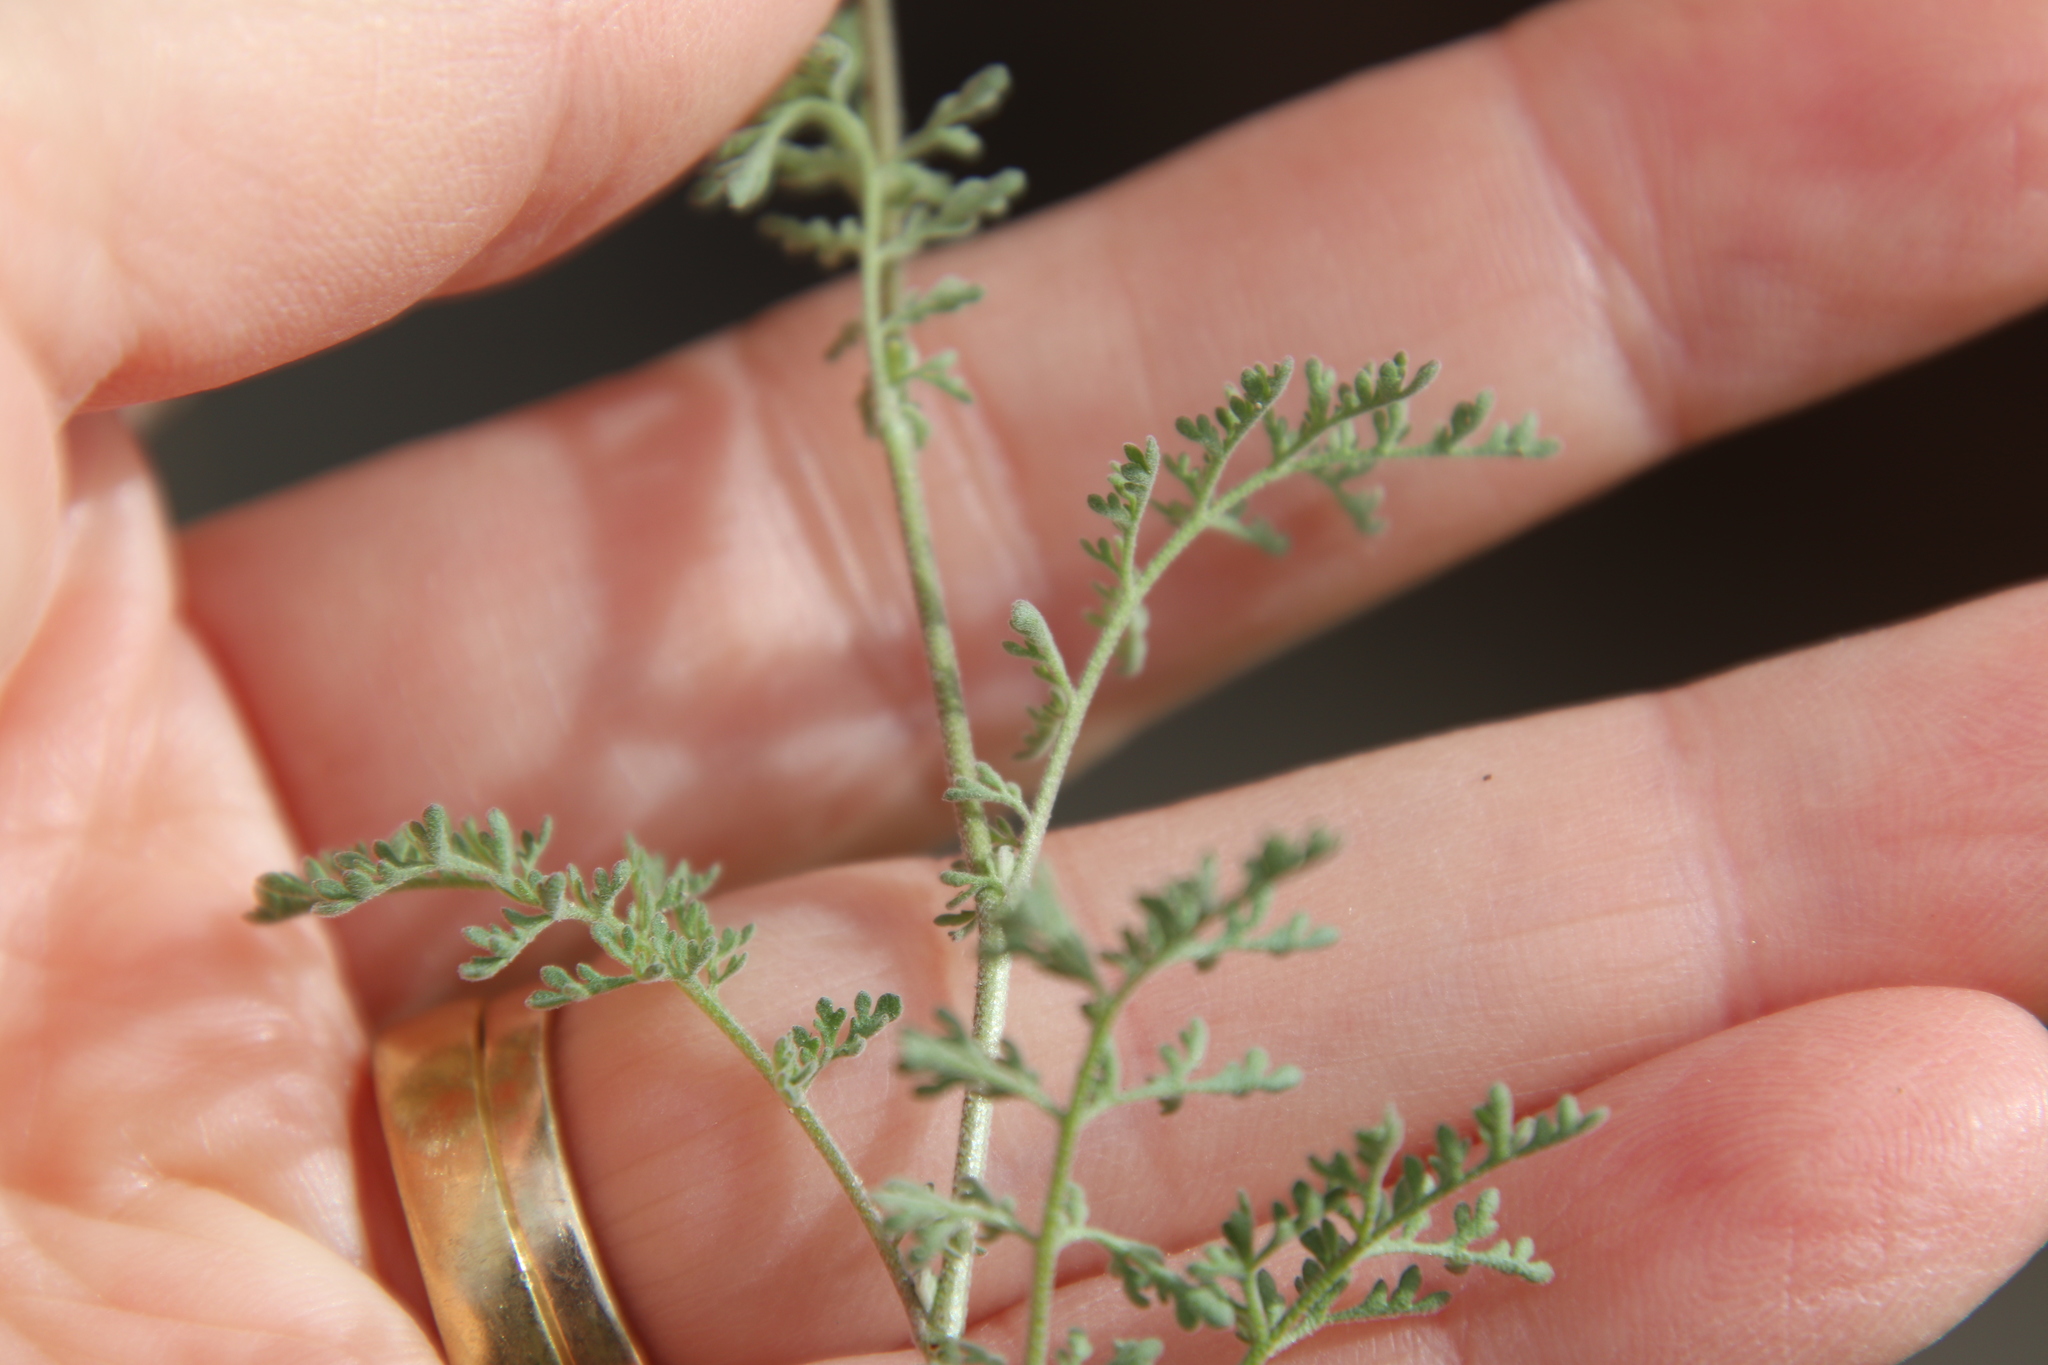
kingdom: Plantae
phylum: Tracheophyta
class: Magnoliopsida
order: Brassicales
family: Brassicaceae
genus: Descurainia
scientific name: Descurainia pinnata
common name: Western tansy mustard
